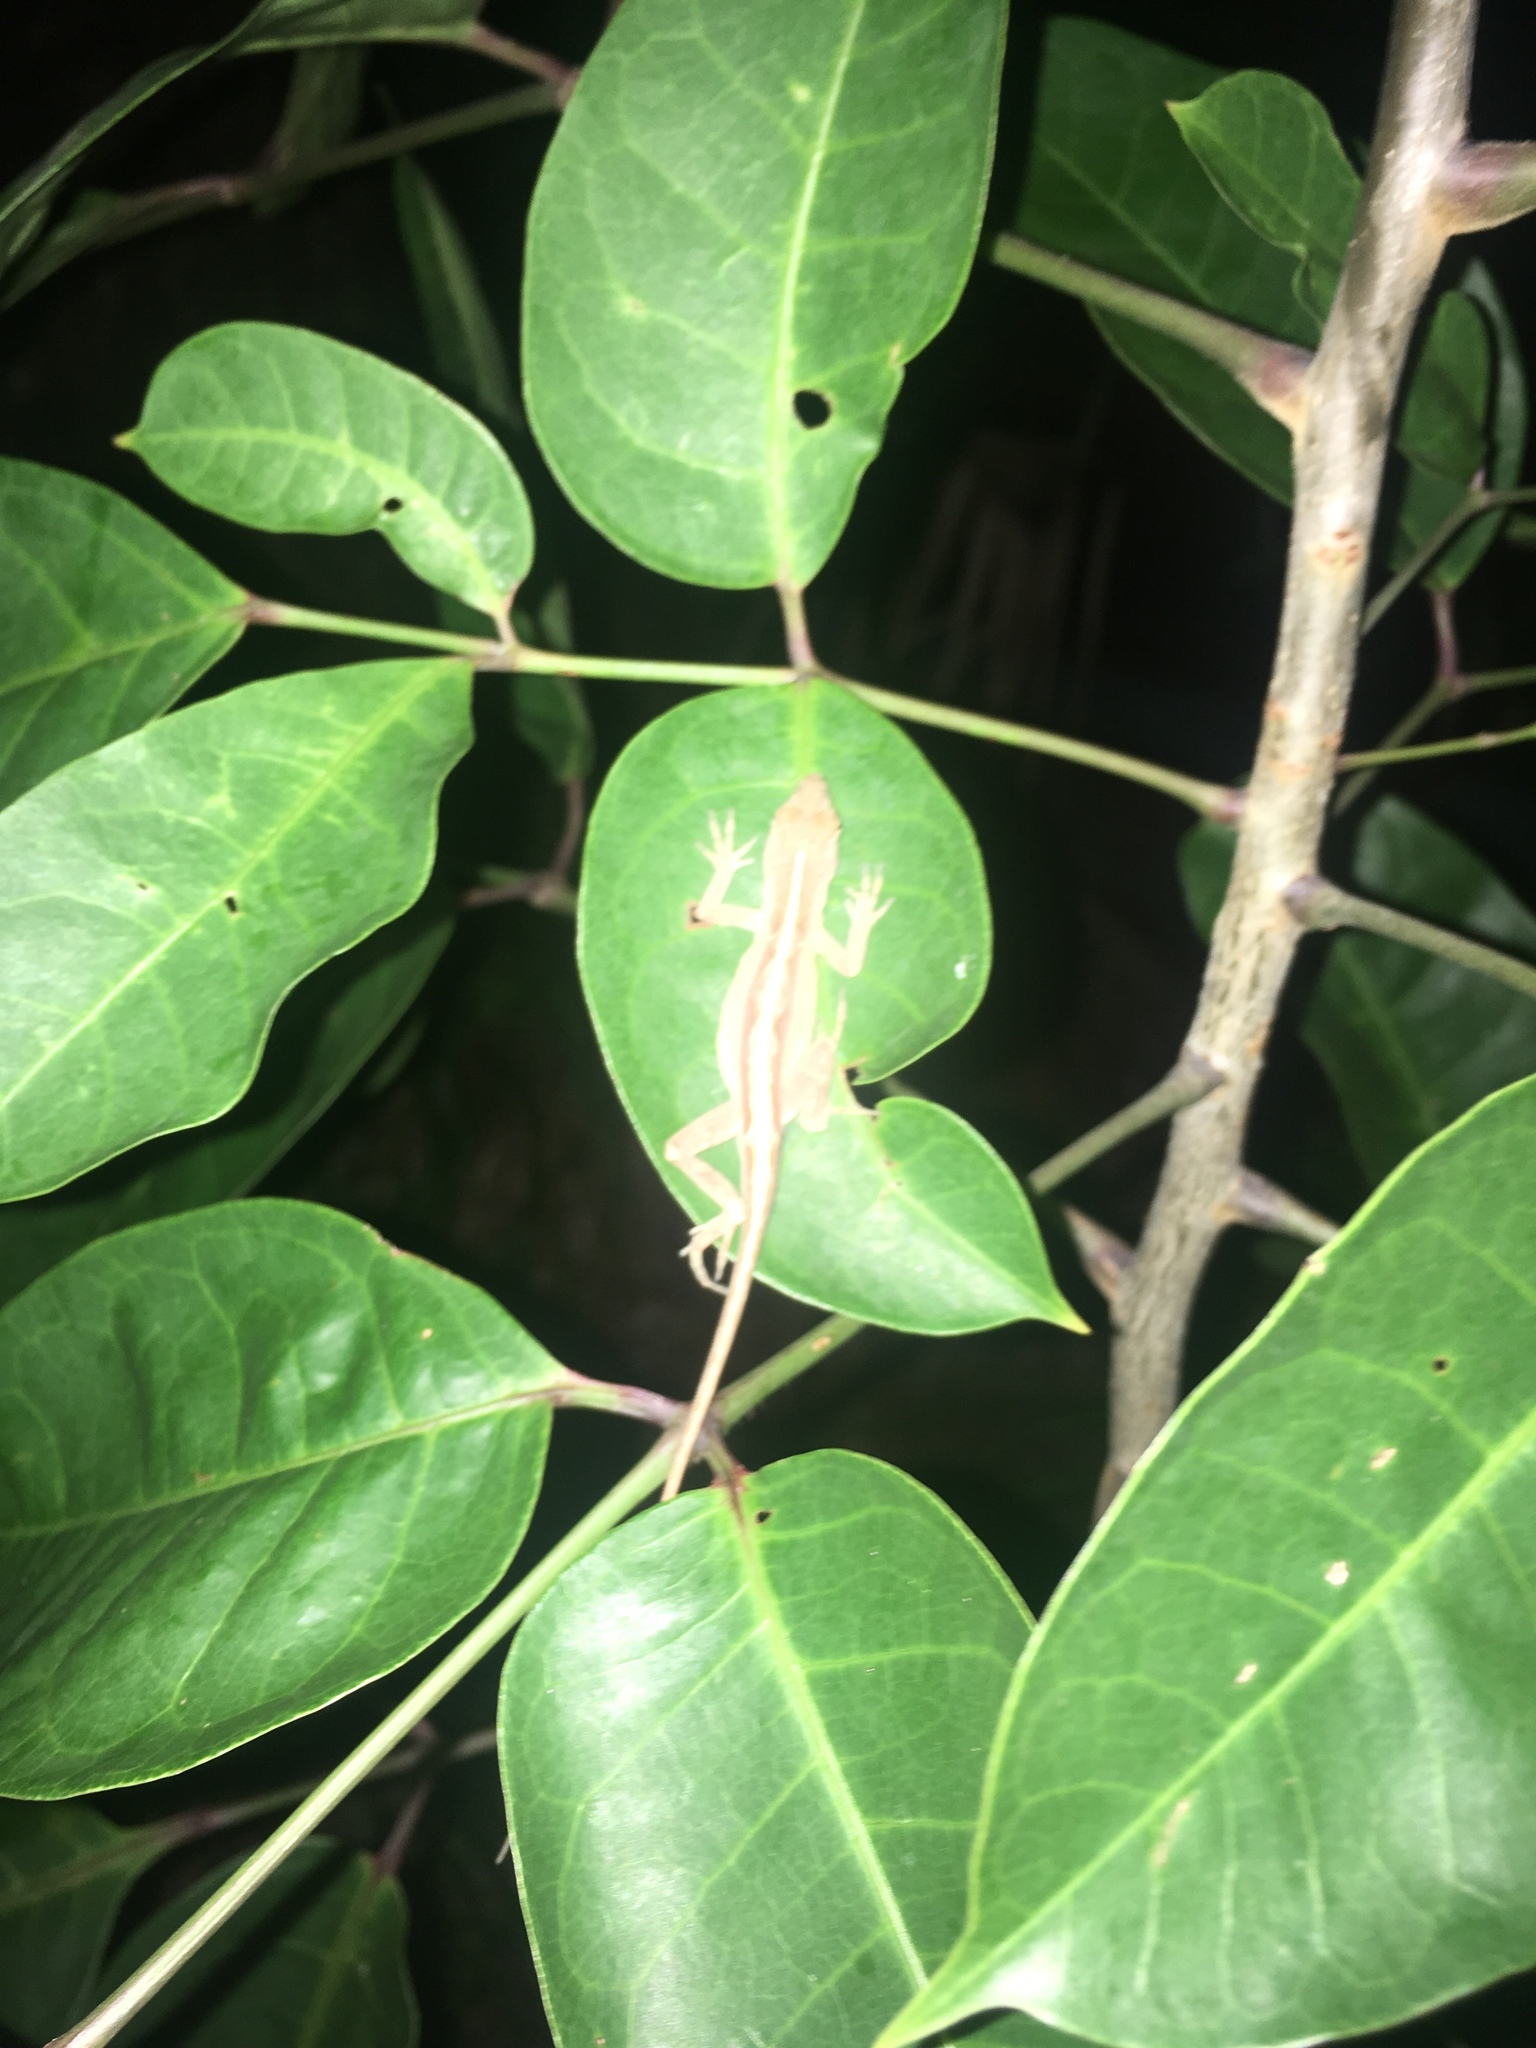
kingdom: Animalia
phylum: Chordata
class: Squamata
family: Dactyloidae
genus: Anolis
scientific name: Anolis sagrei
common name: Brown anole
